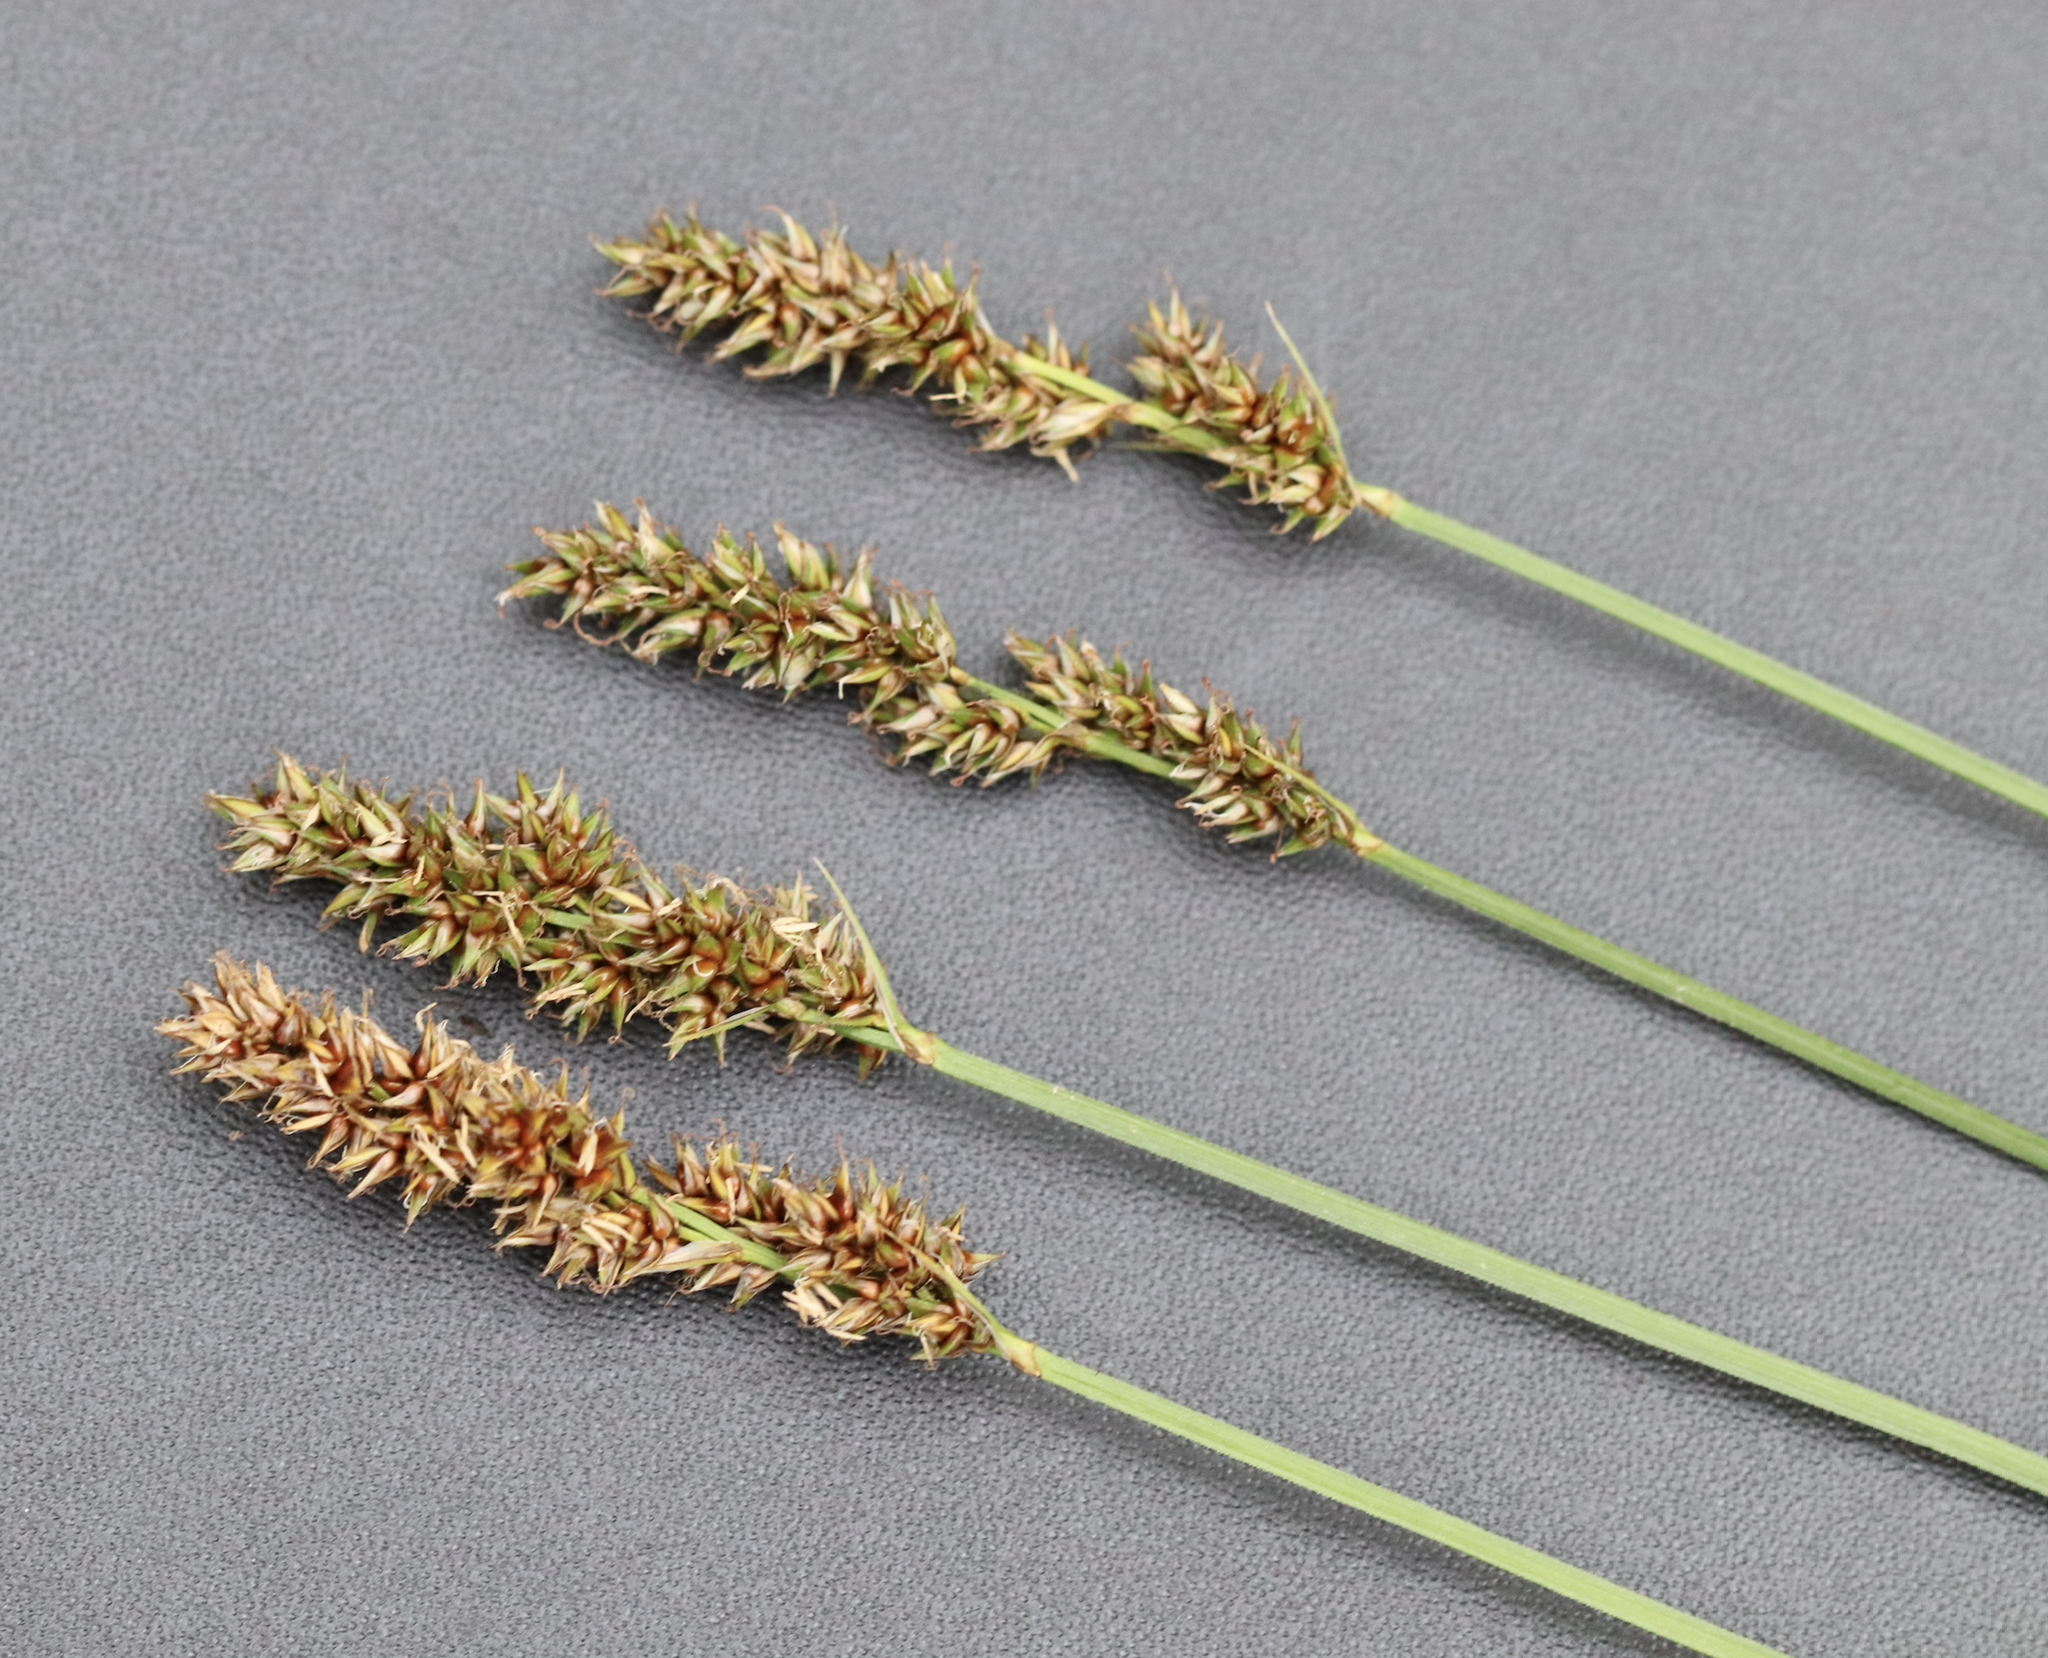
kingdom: Plantae
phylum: Tracheophyta
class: Liliopsida
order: Poales
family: Cyperaceae
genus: Carex
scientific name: Carex diandra
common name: Lesser tussock-sedge
